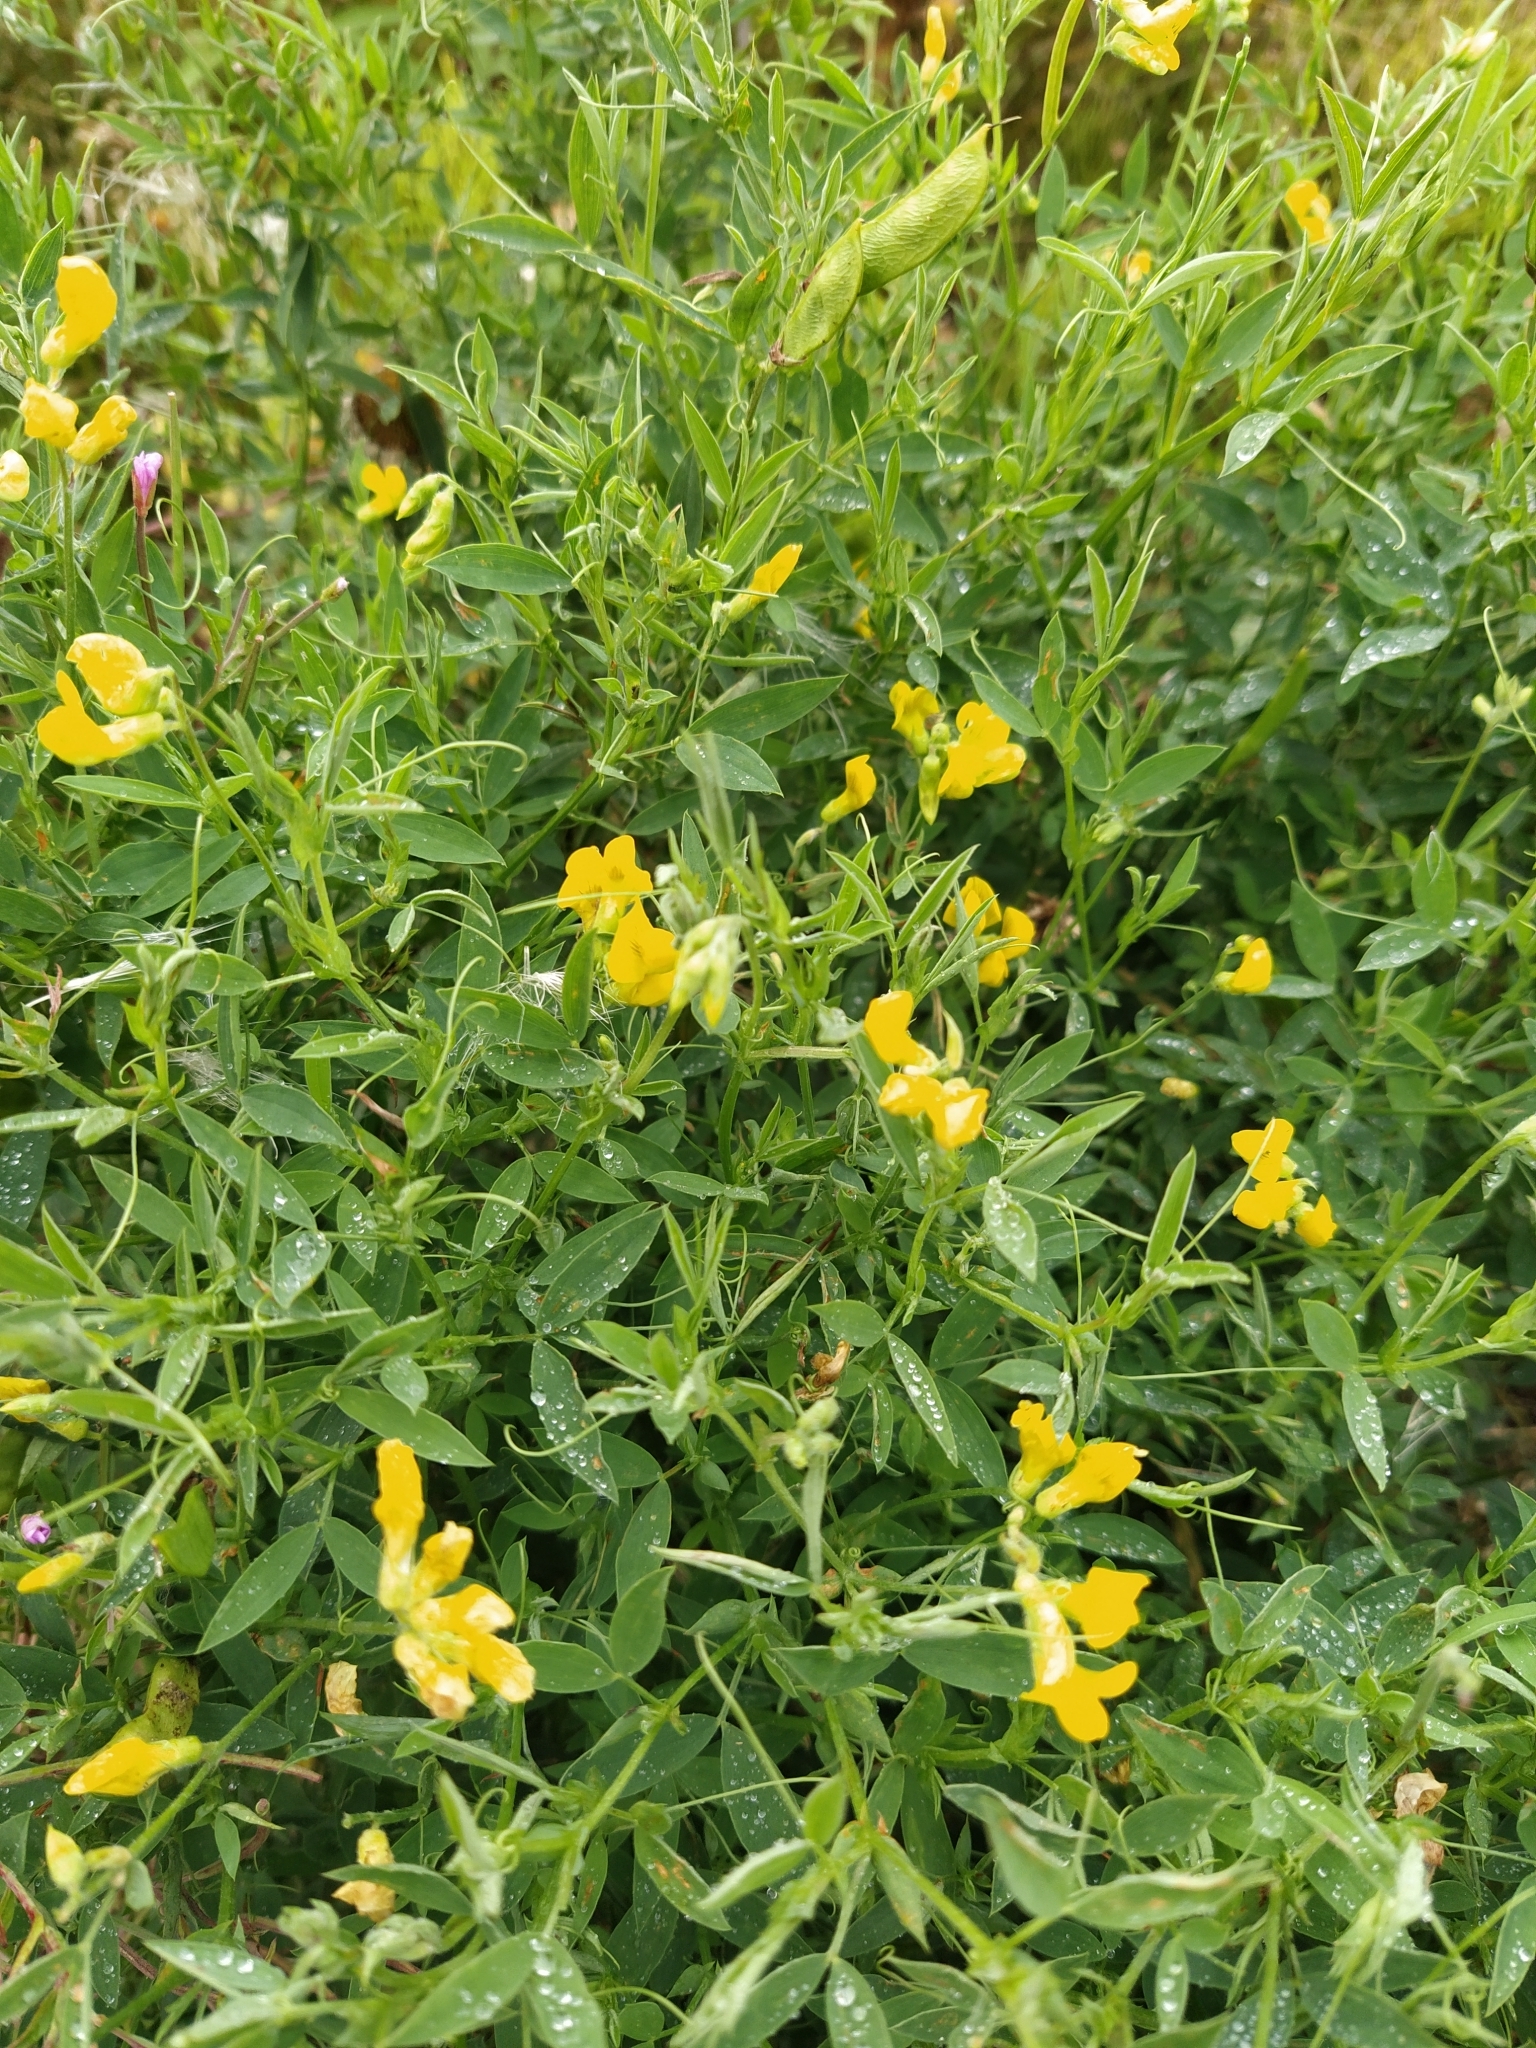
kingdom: Plantae
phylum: Tracheophyta
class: Magnoliopsida
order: Fabales
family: Fabaceae
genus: Lathyrus
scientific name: Lathyrus pratensis
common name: Meadow vetchling
